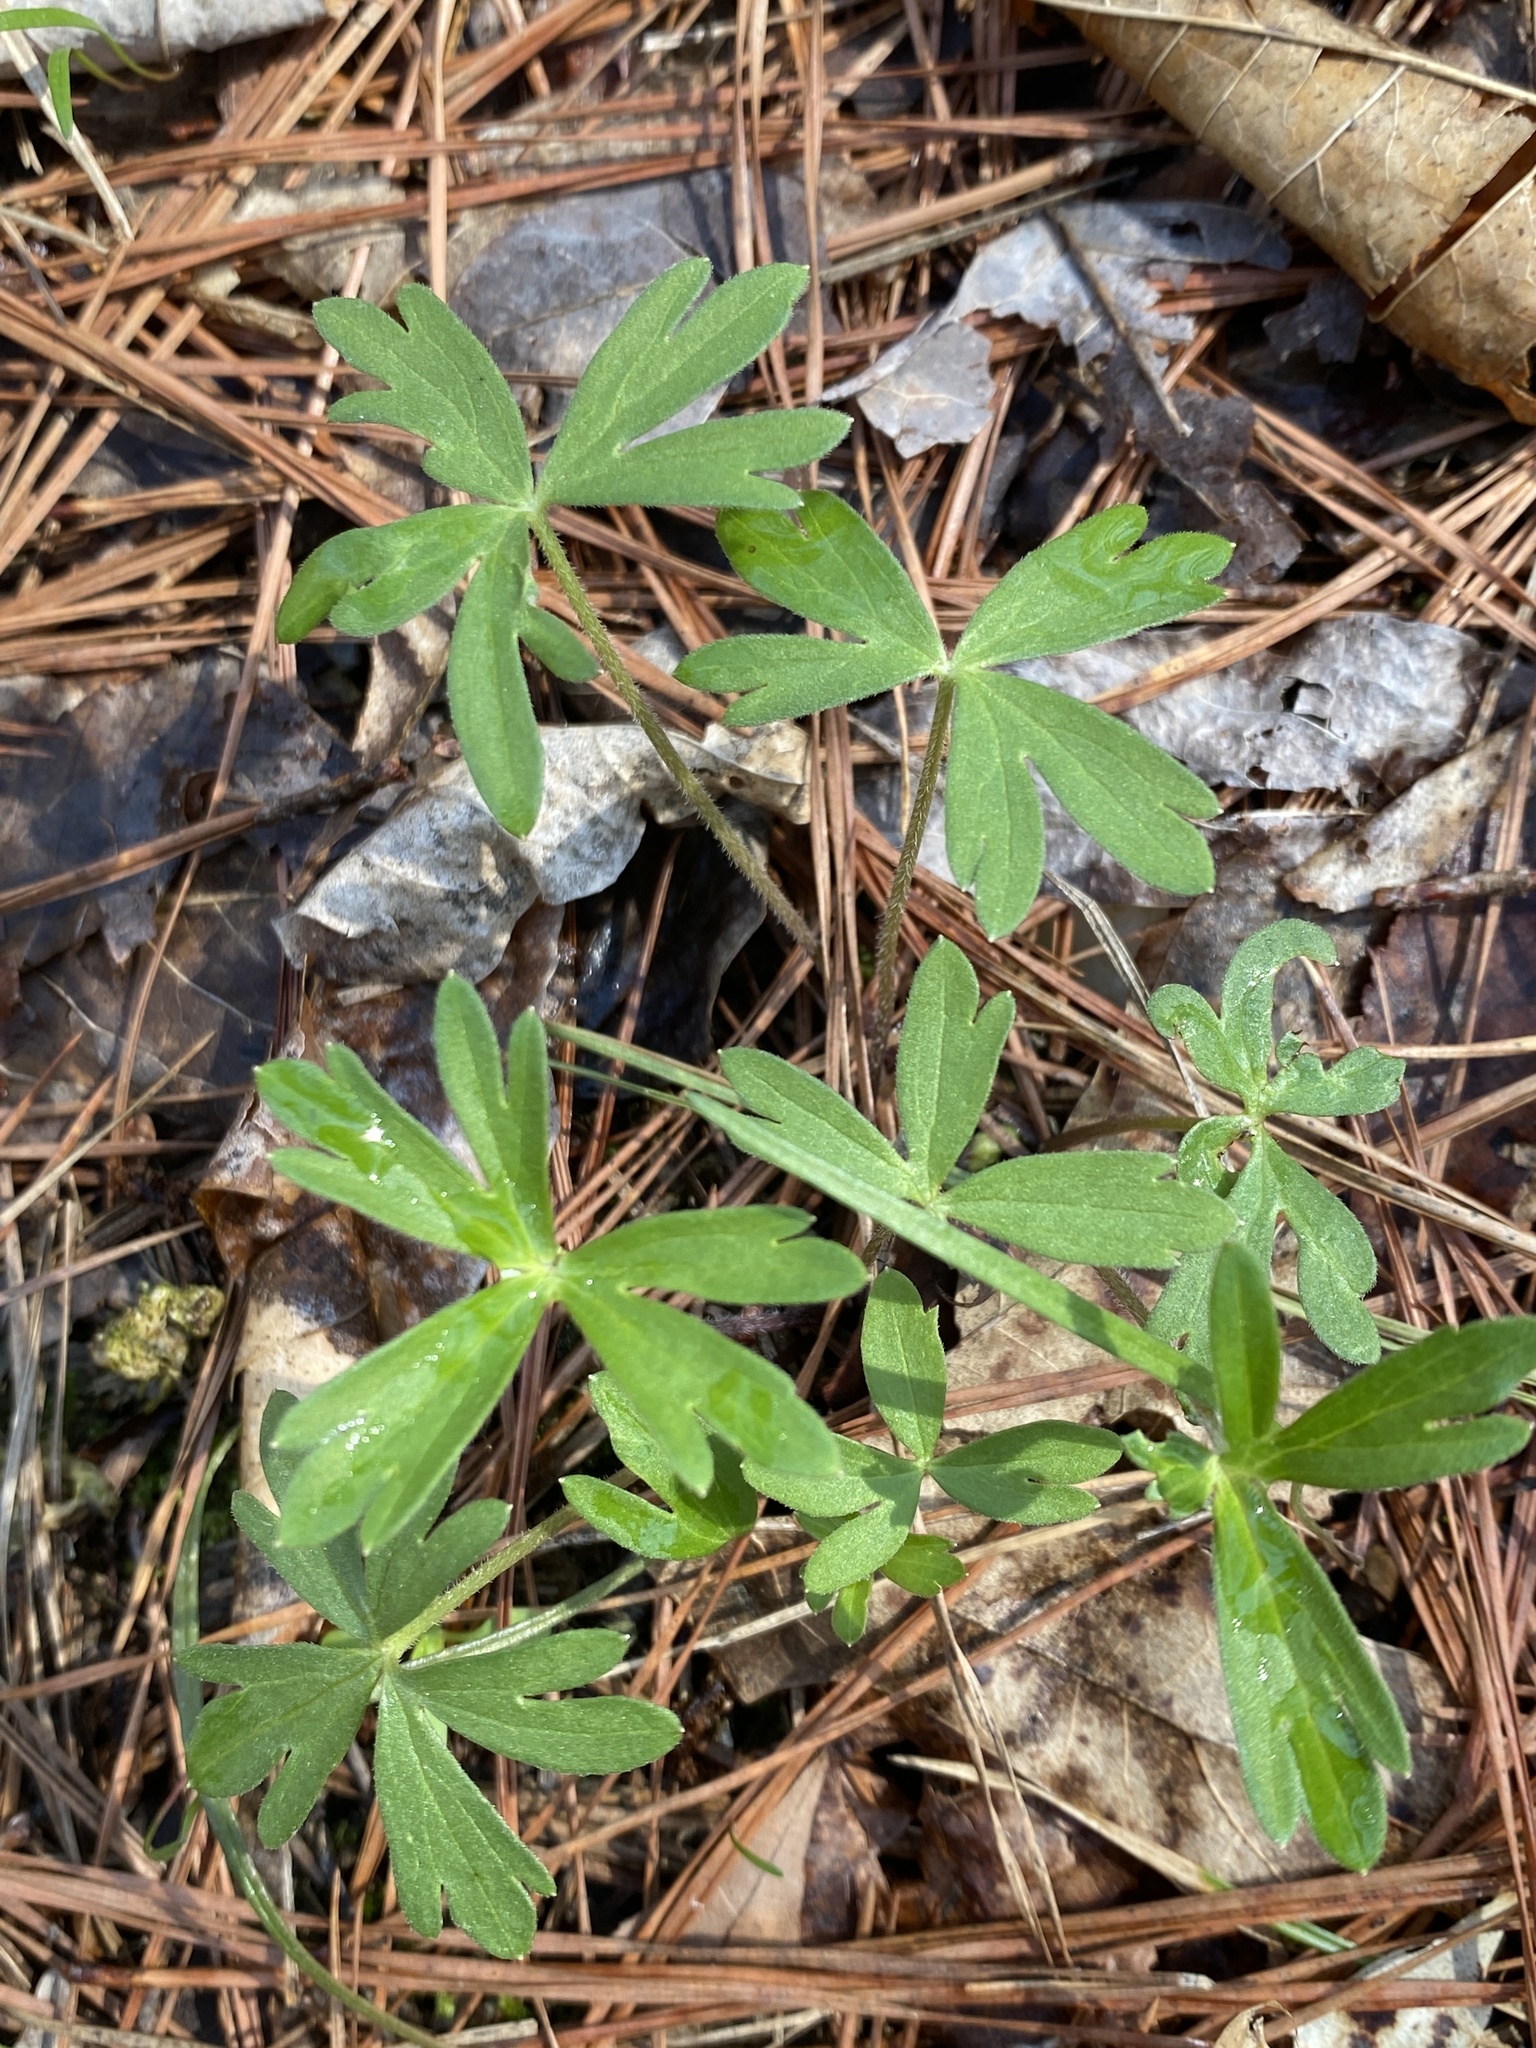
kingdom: Plantae
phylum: Tracheophyta
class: Magnoliopsida
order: Ranunculales
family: Ranunculaceae
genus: Delphinium
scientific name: Delphinium tricorne
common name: Dwarf larkspur
